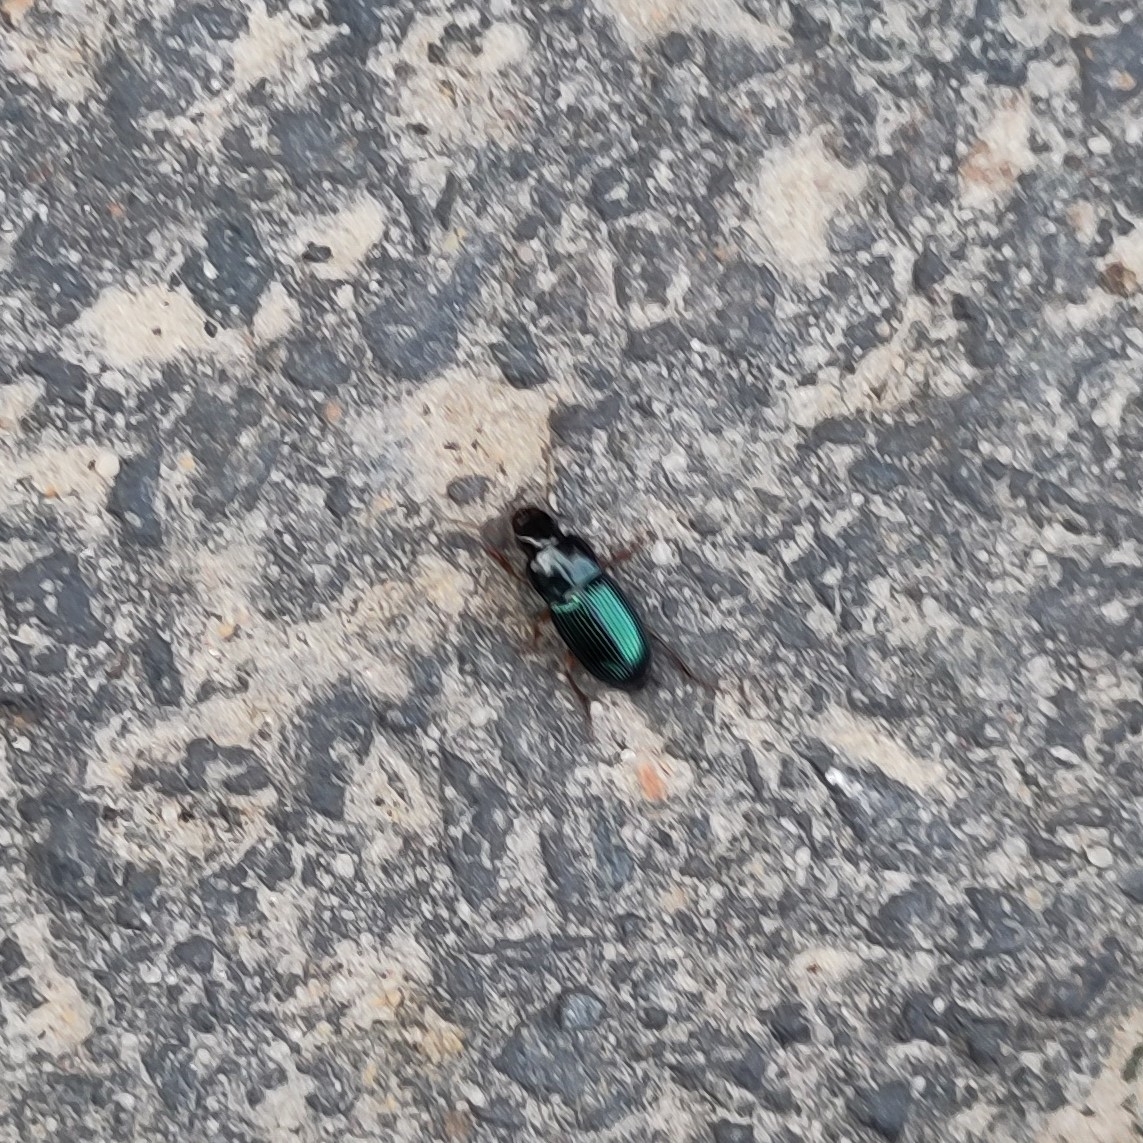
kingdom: Animalia
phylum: Arthropoda
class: Insecta
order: Coleoptera
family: Carabidae
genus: Harpalus
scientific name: Harpalus rubripes
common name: Red-legged harp ground beetle
